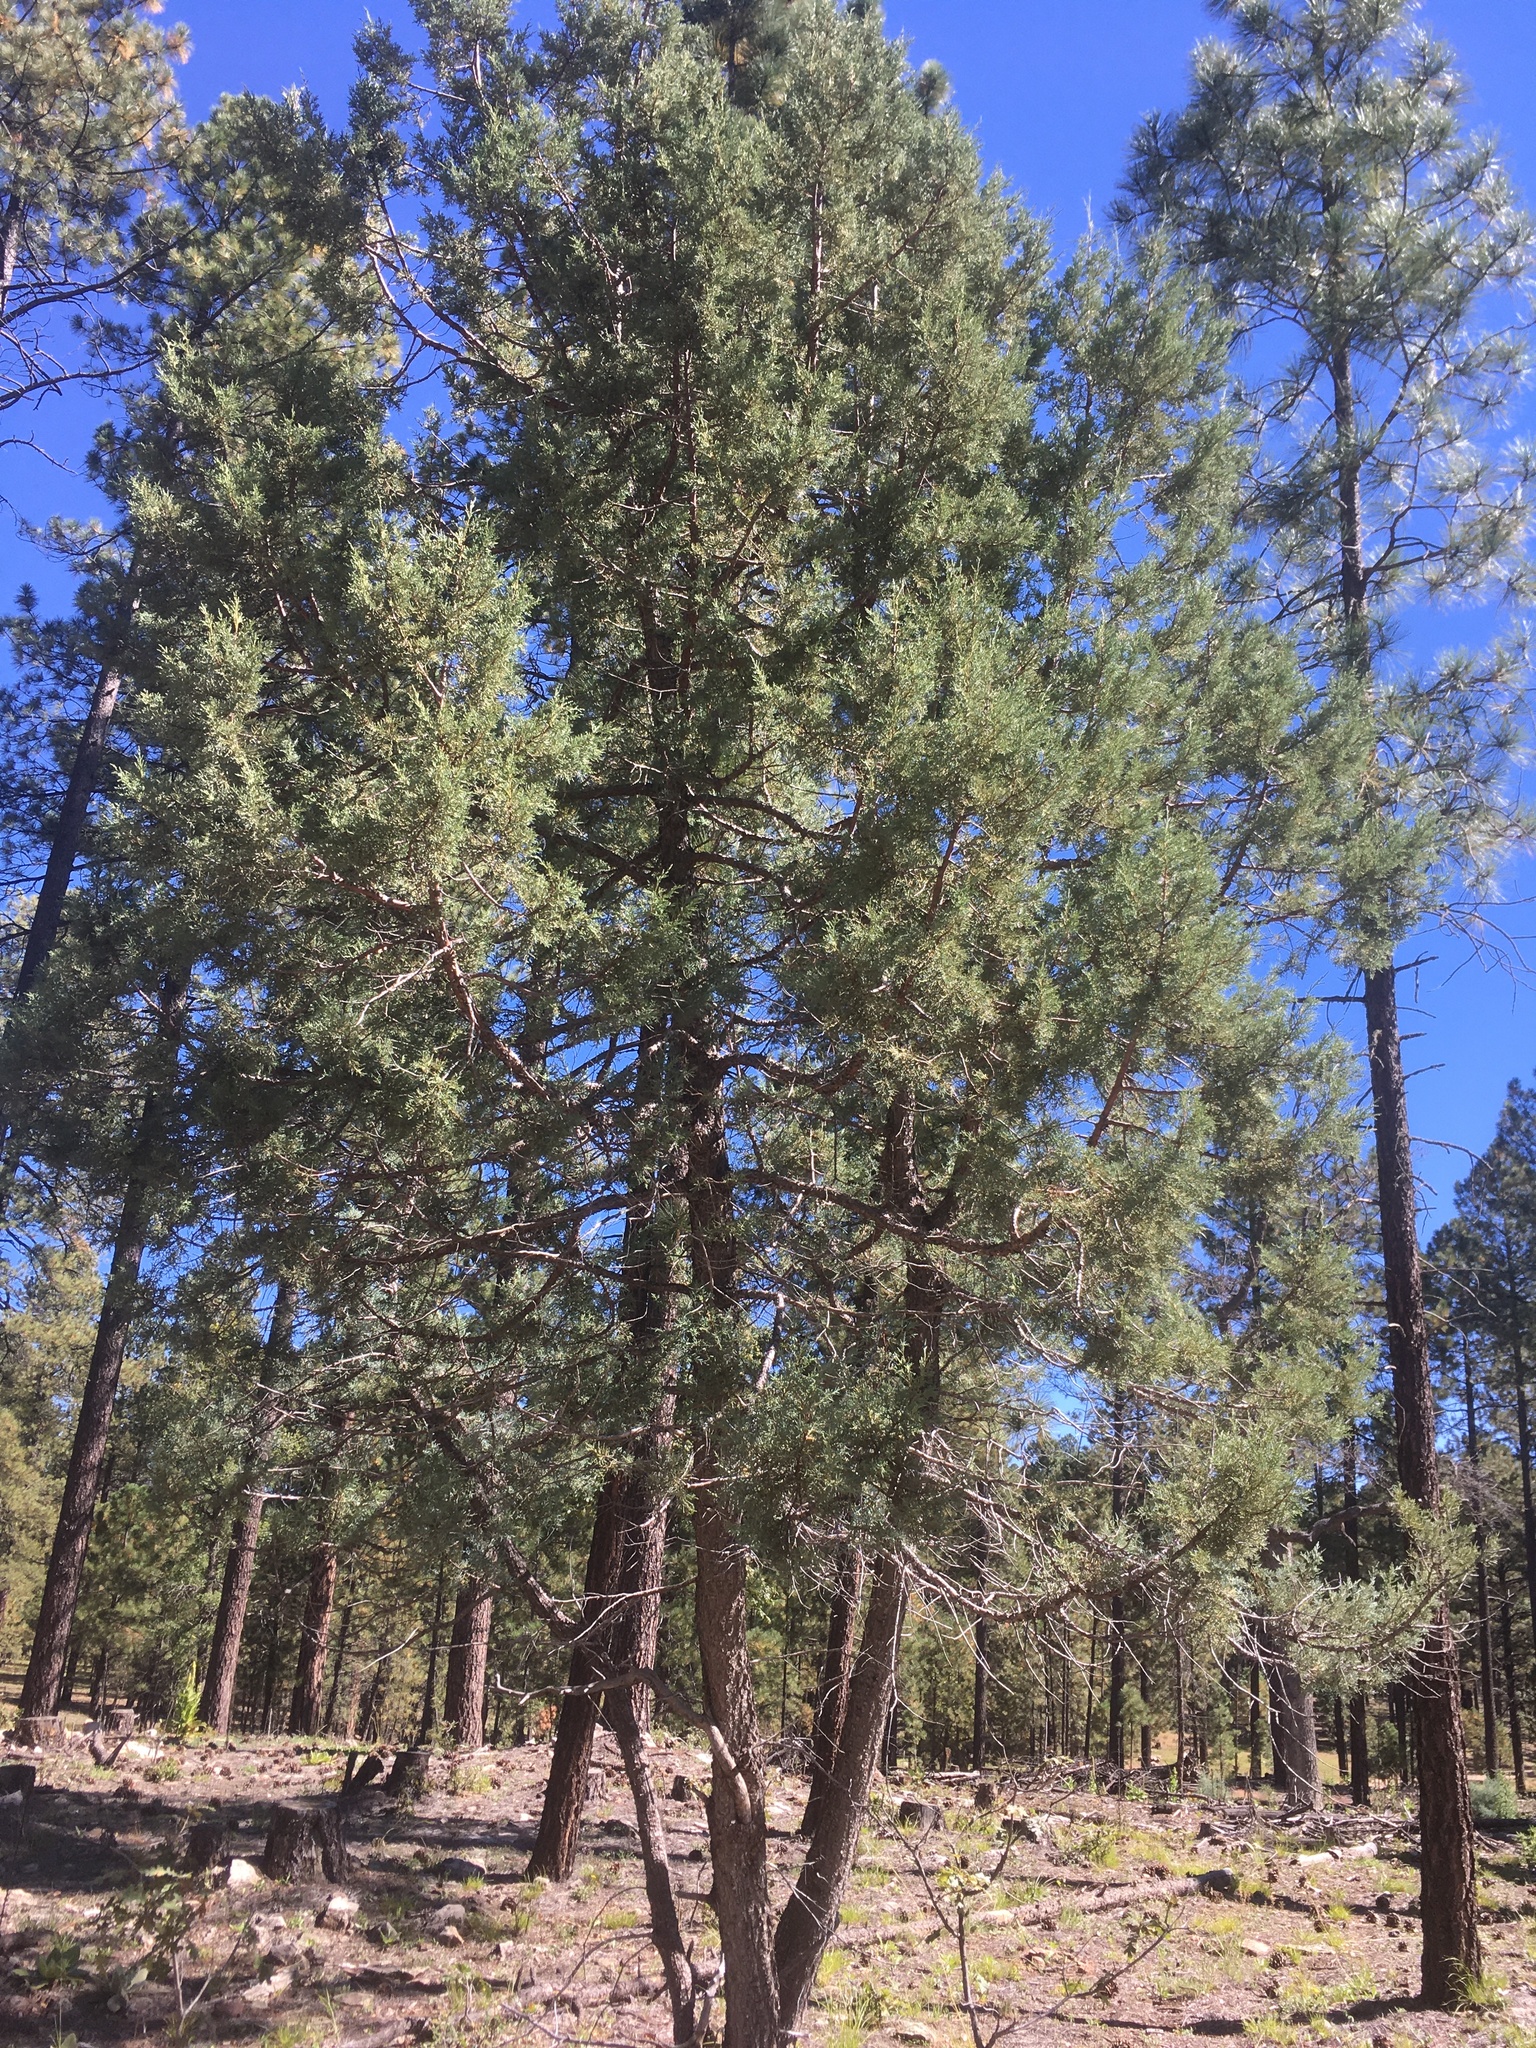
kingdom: Plantae
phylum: Tracheophyta
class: Pinopsida
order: Pinales
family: Cupressaceae
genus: Juniperus
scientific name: Juniperus deppeana
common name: Alligator juniper
